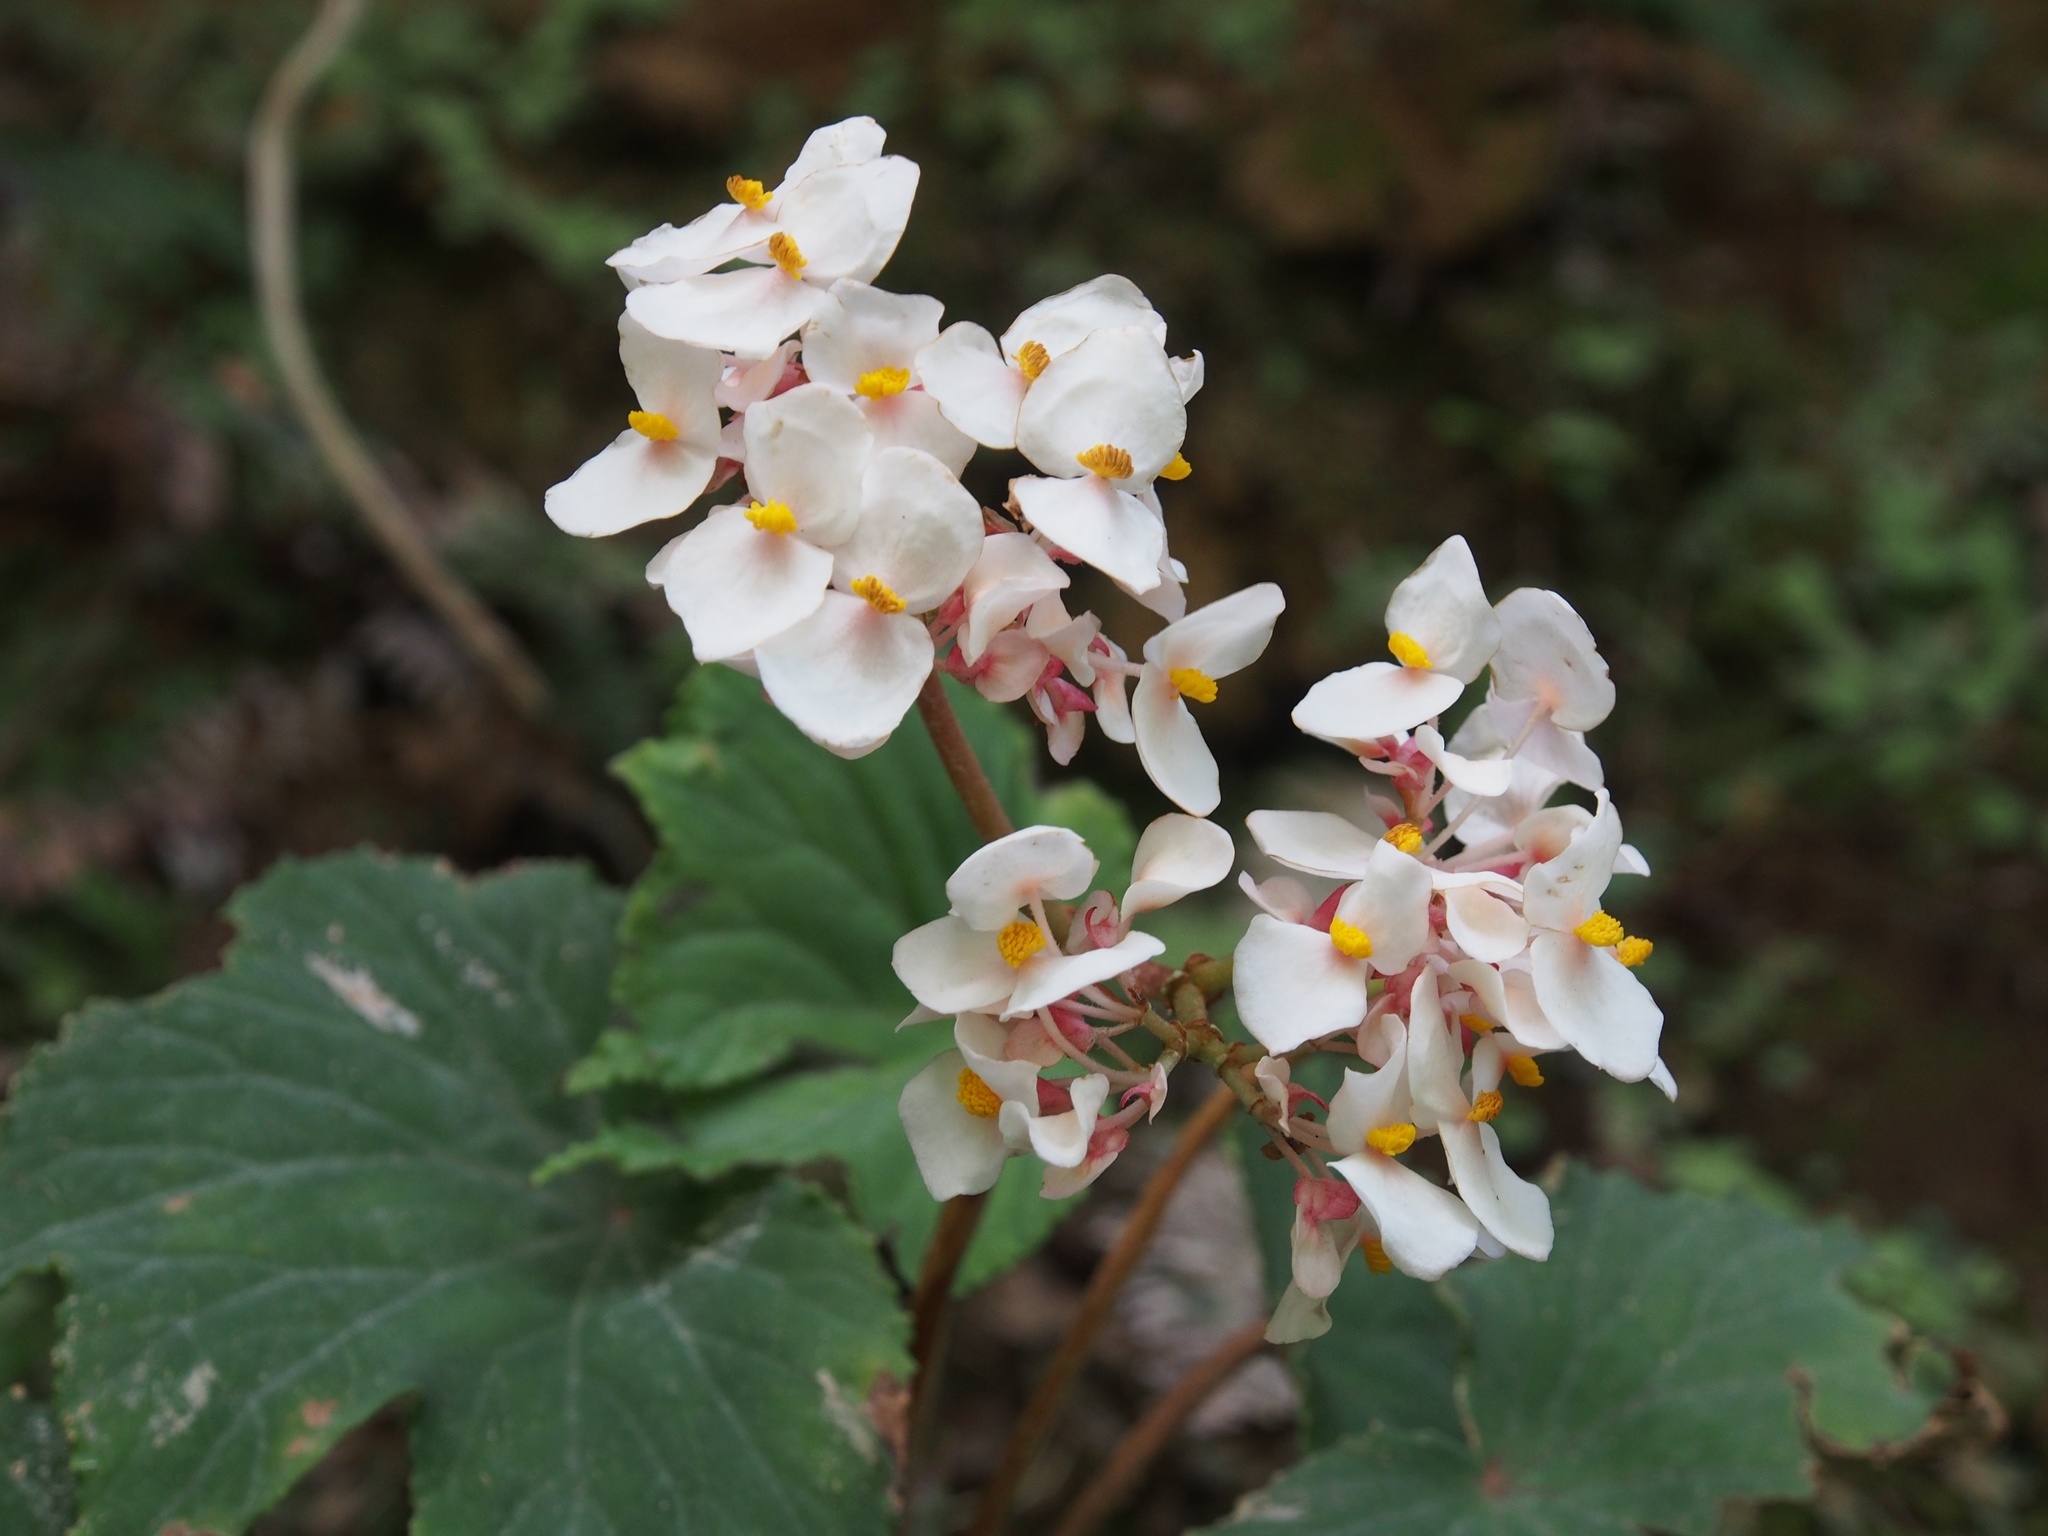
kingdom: Plantae
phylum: Tracheophyta
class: Magnoliopsida
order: Cucurbitales
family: Begoniaceae
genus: Begonia
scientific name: Begonia involucrata
